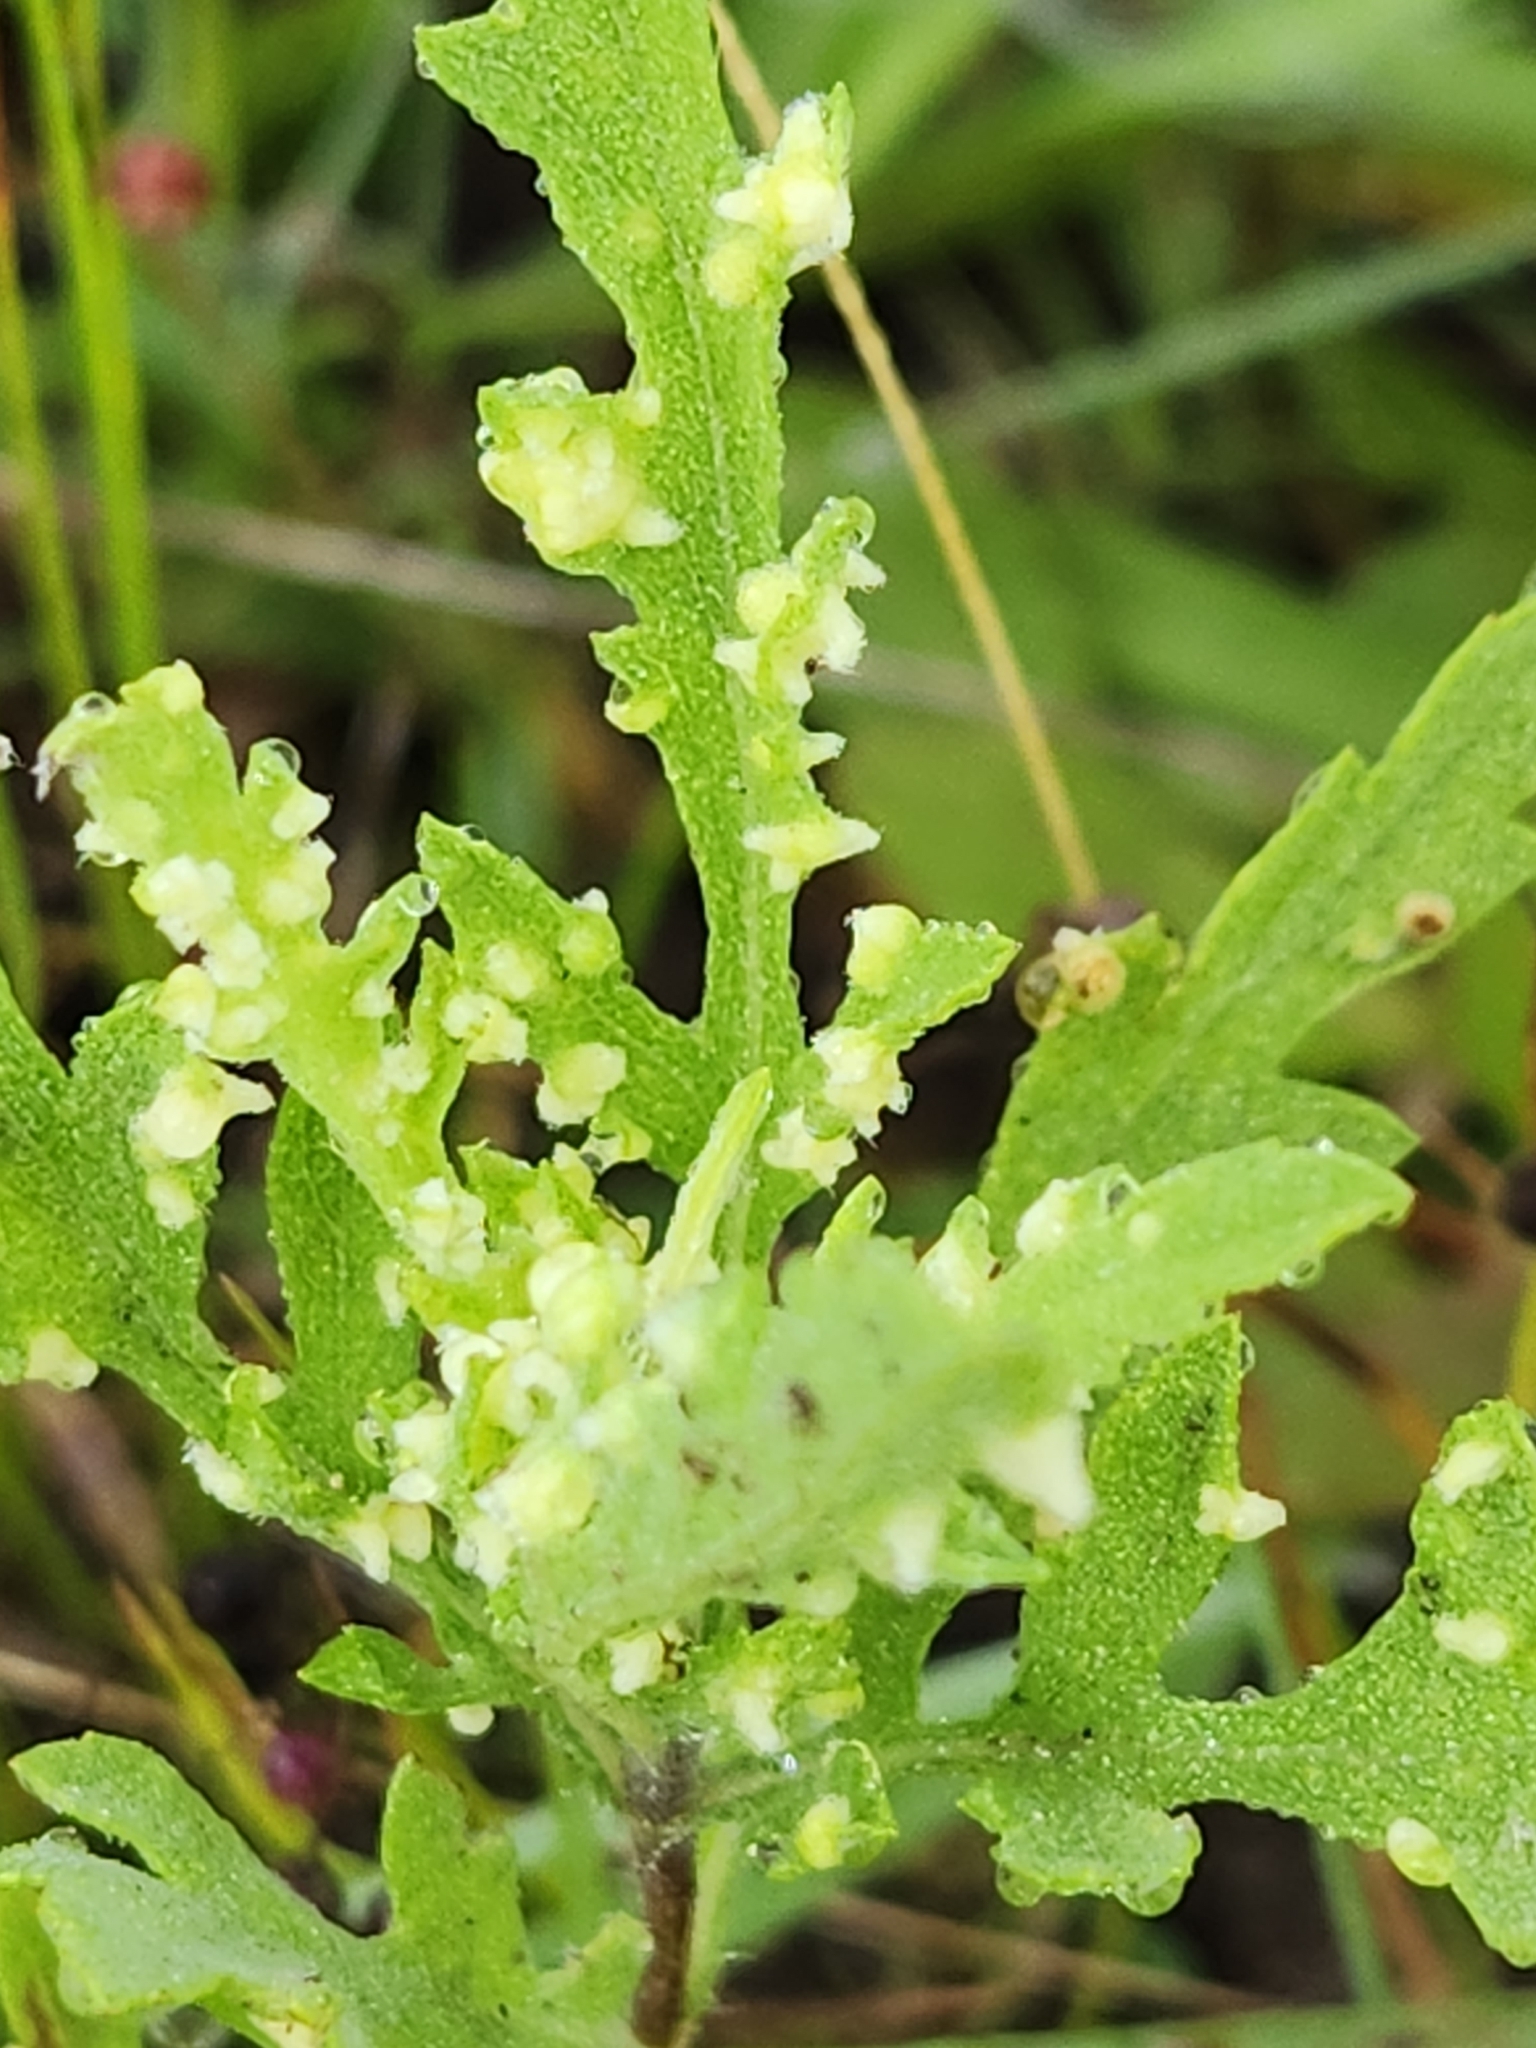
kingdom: Animalia
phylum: Arthropoda
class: Arachnida
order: Trombidiformes
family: Eriophyidae
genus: Aceria
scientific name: Aceria
